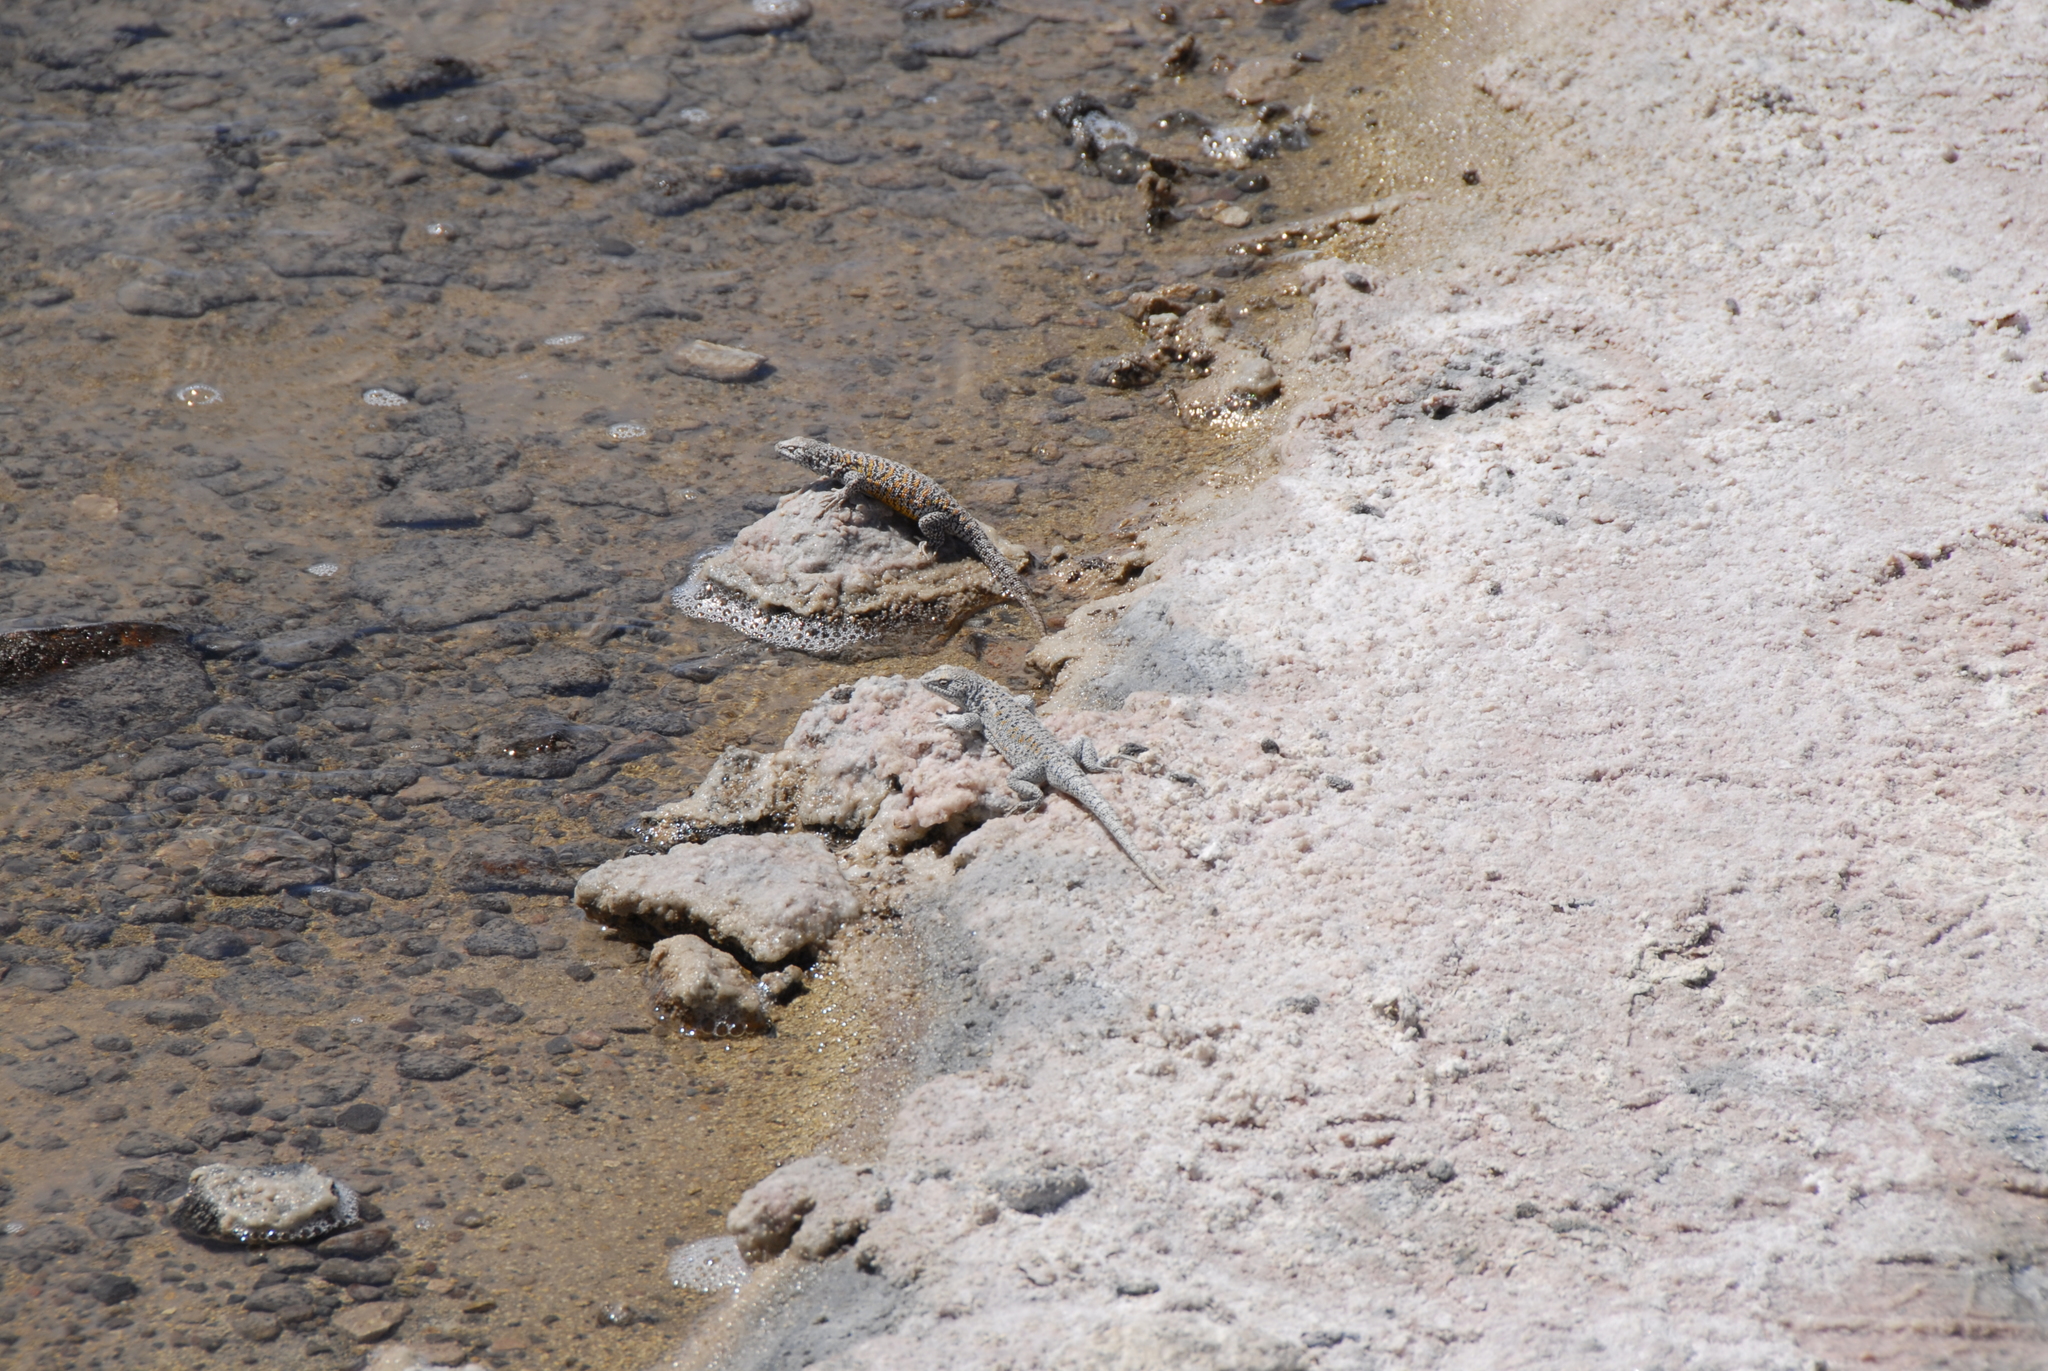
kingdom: Animalia
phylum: Chordata
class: Squamata
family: Liolaemidae
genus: Liolaemus
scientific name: Liolaemus fabiani
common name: Fabian’s lizard
